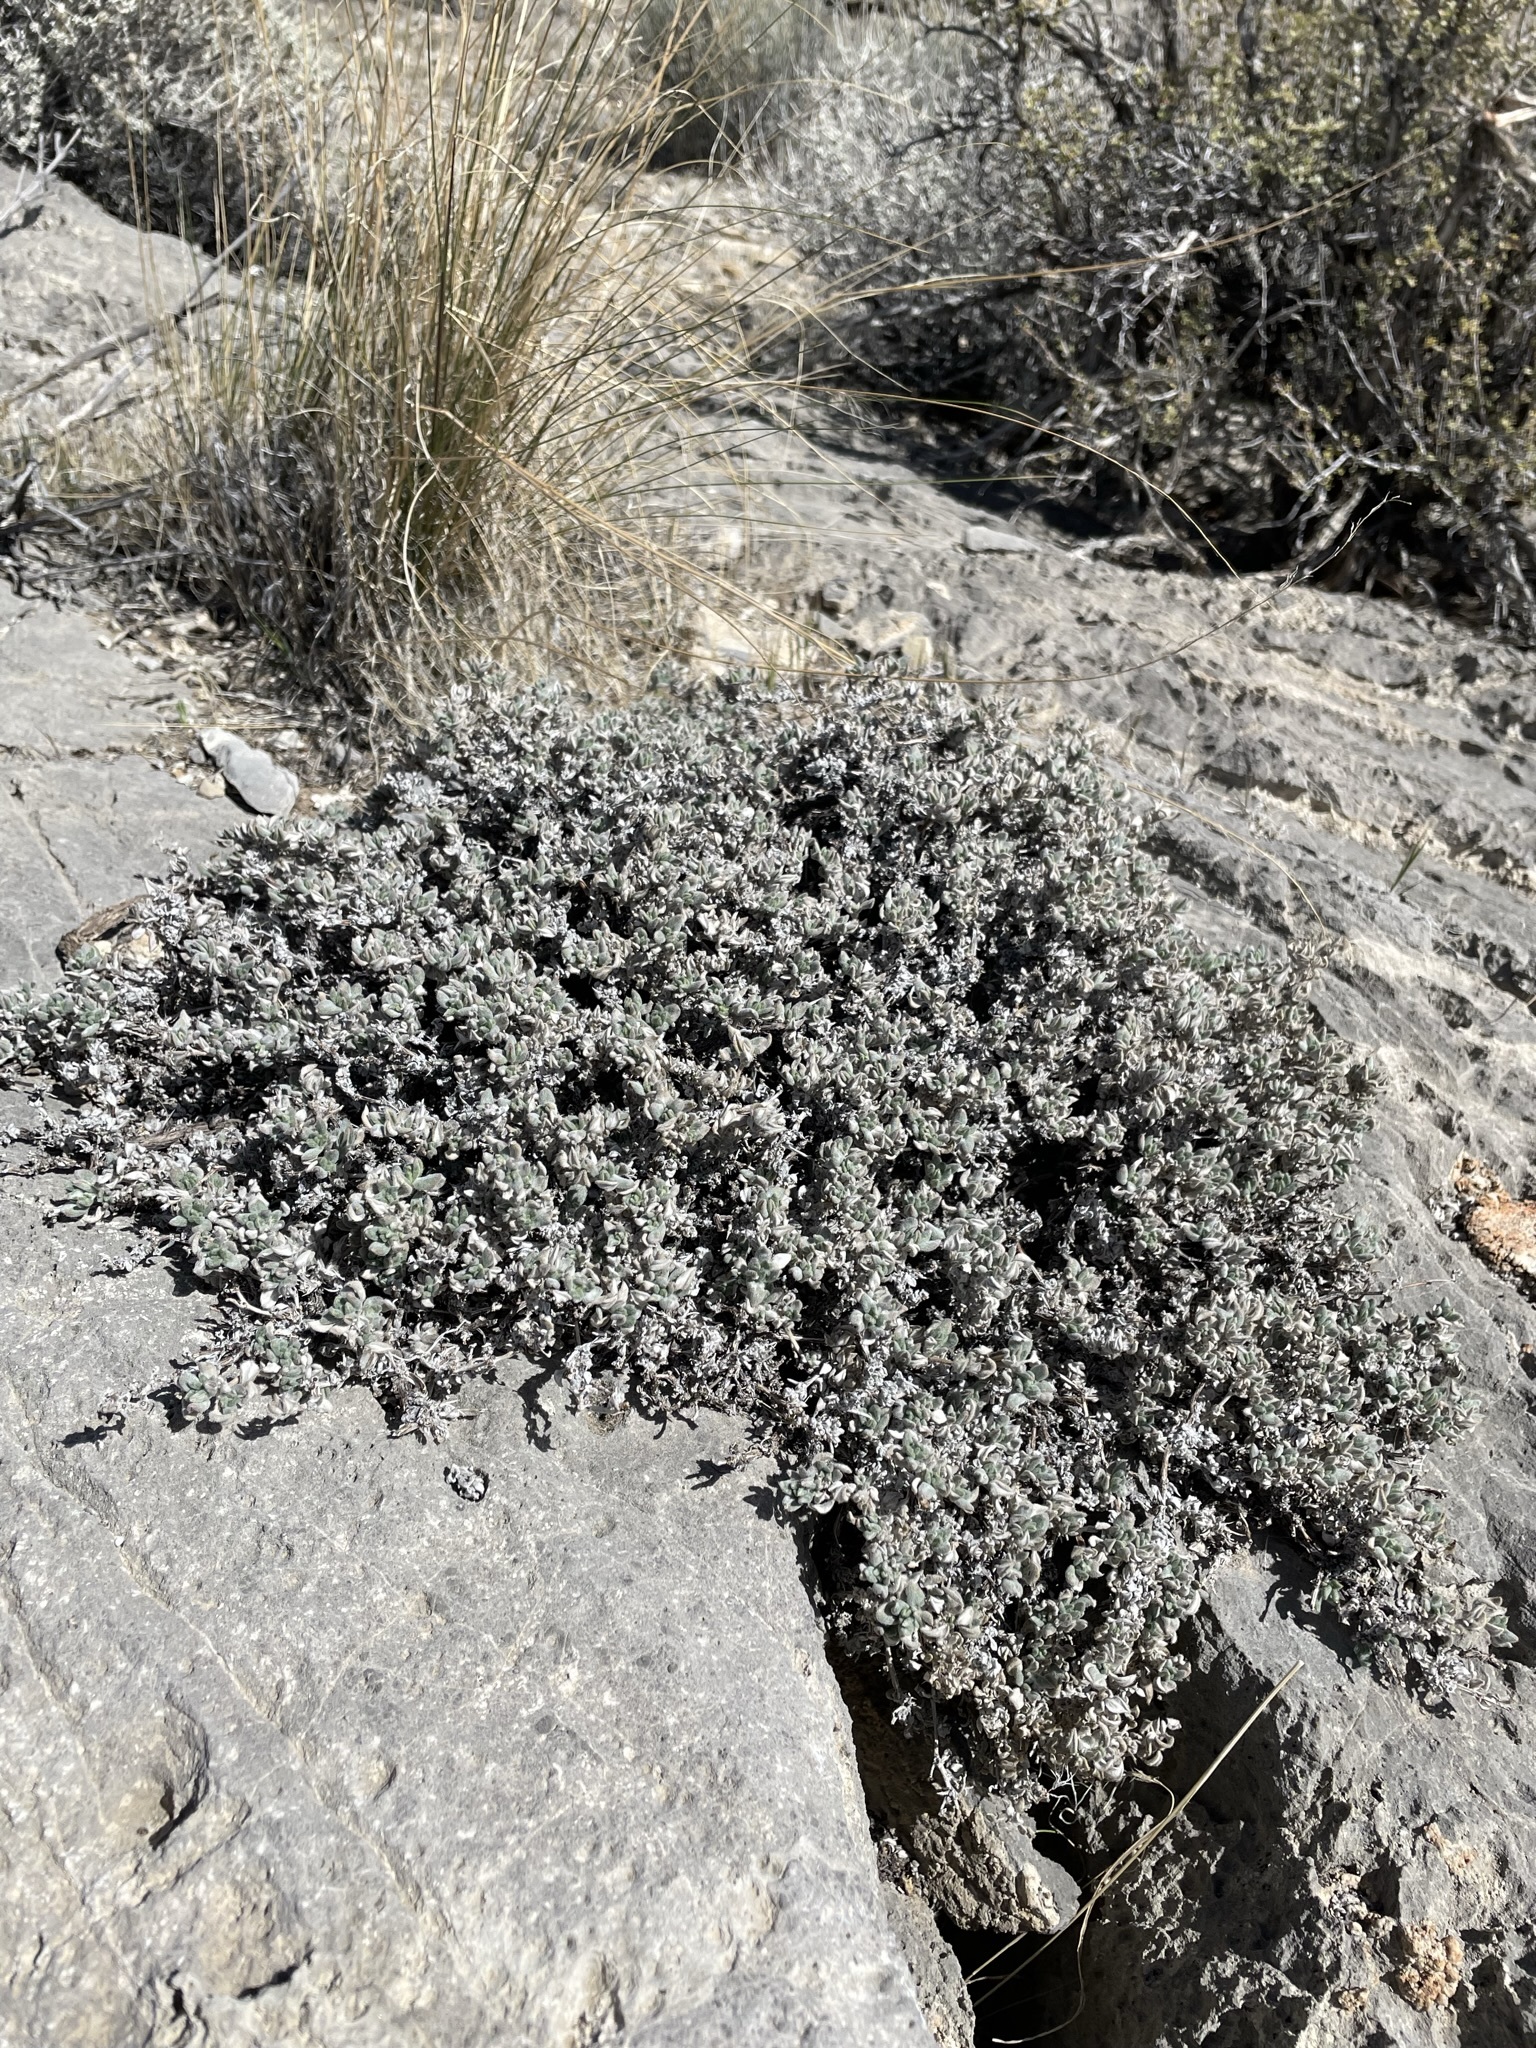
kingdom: Plantae
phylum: Tracheophyta
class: Magnoliopsida
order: Boraginales
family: Ehretiaceae
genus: Tiquilia
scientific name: Tiquilia canescens
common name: Hairy tiquilia
